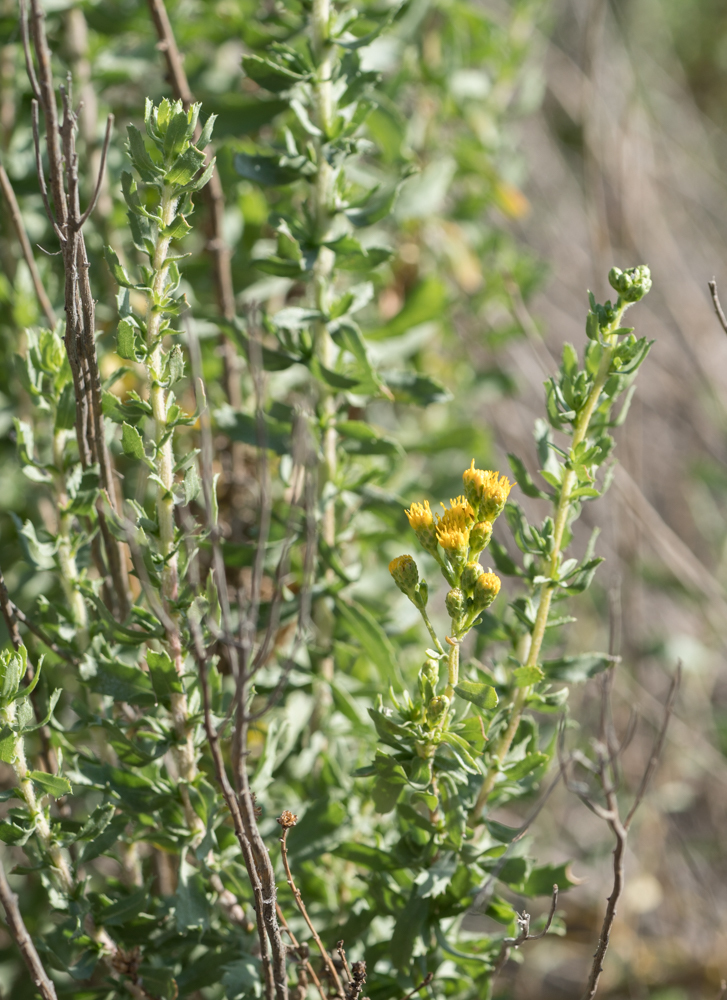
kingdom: Plantae
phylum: Tracheophyta
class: Magnoliopsida
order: Asterales
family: Asteraceae
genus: Isocoma
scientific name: Isocoma menziesii
